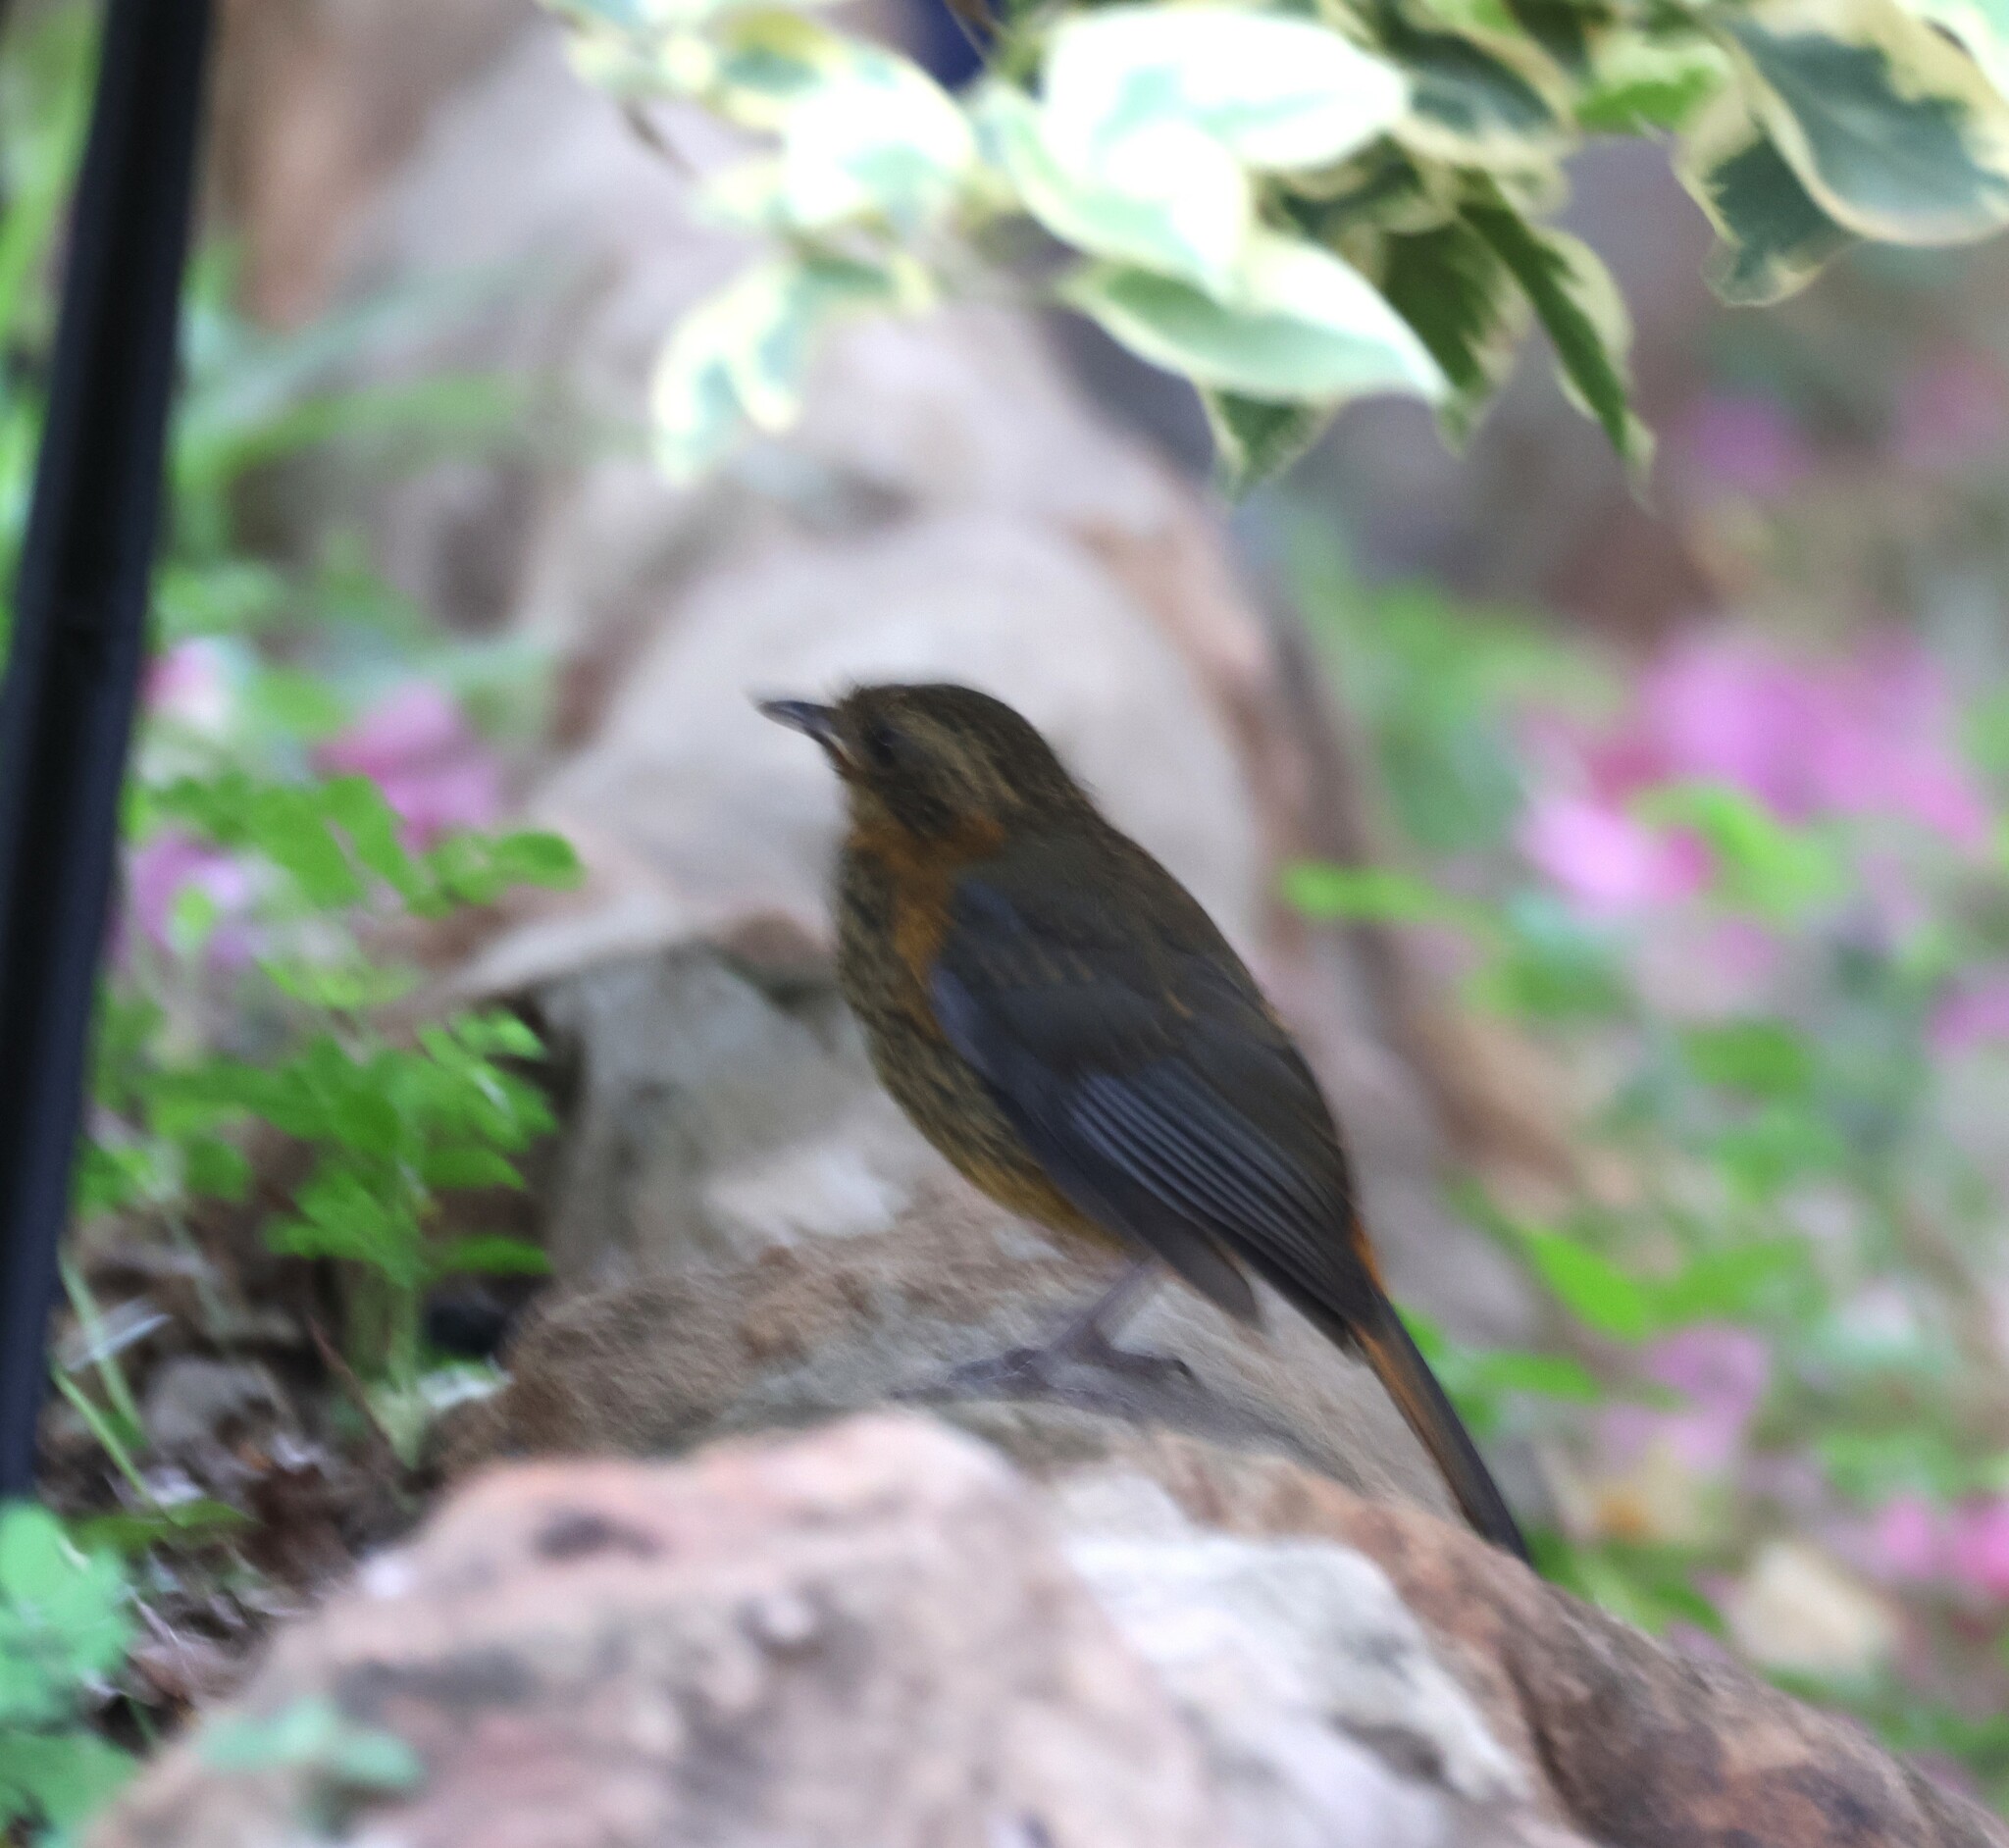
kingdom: Animalia
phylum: Chordata
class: Aves
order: Passeriformes
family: Muscicapidae
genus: Cossypha
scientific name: Cossypha heuglini
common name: White-browed robin-chat
